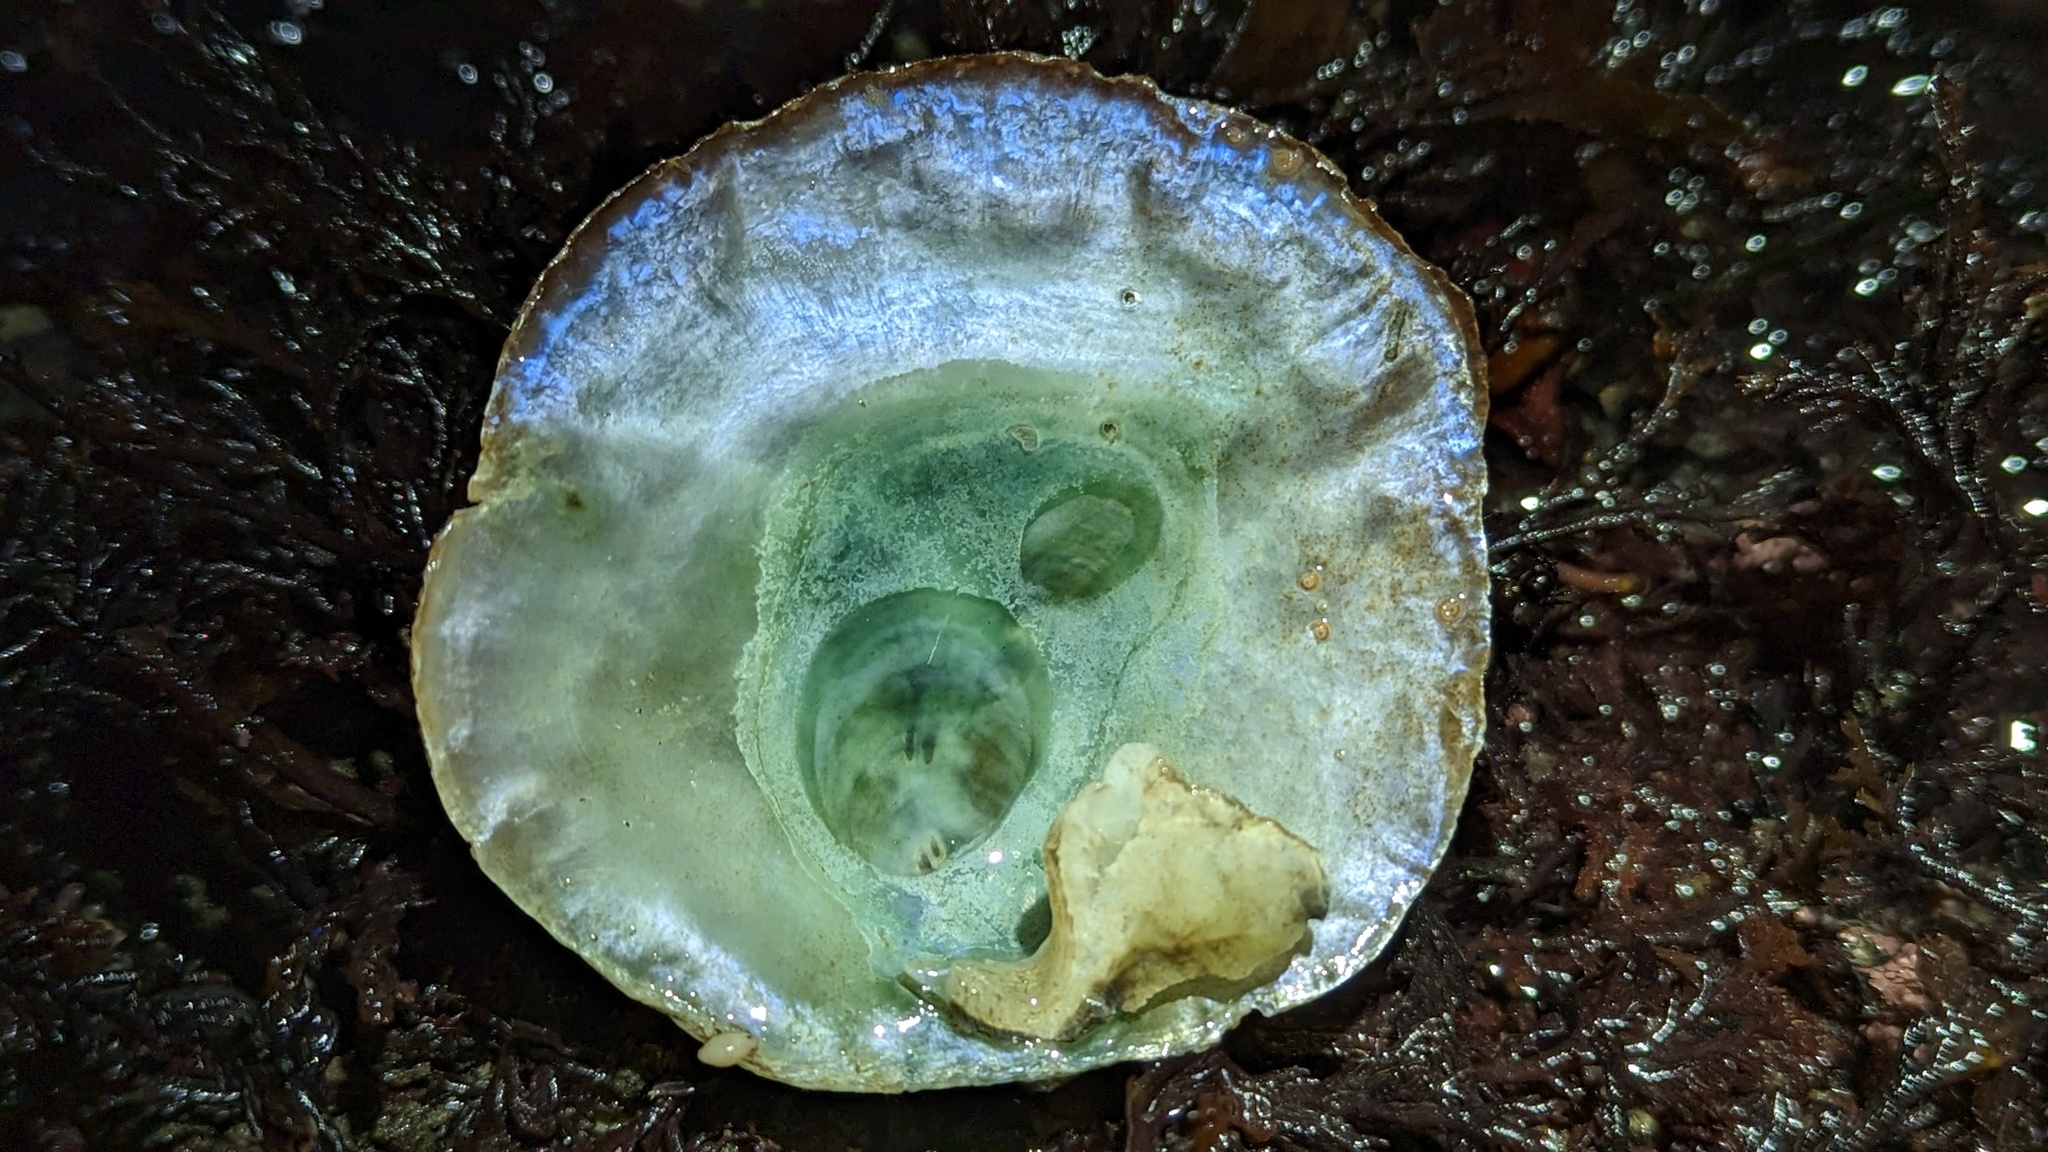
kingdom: Animalia
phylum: Mollusca
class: Bivalvia
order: Pectinida
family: Anomiidae
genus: Pododesmus
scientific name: Pododesmus macrochisma
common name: Alaska jingle
